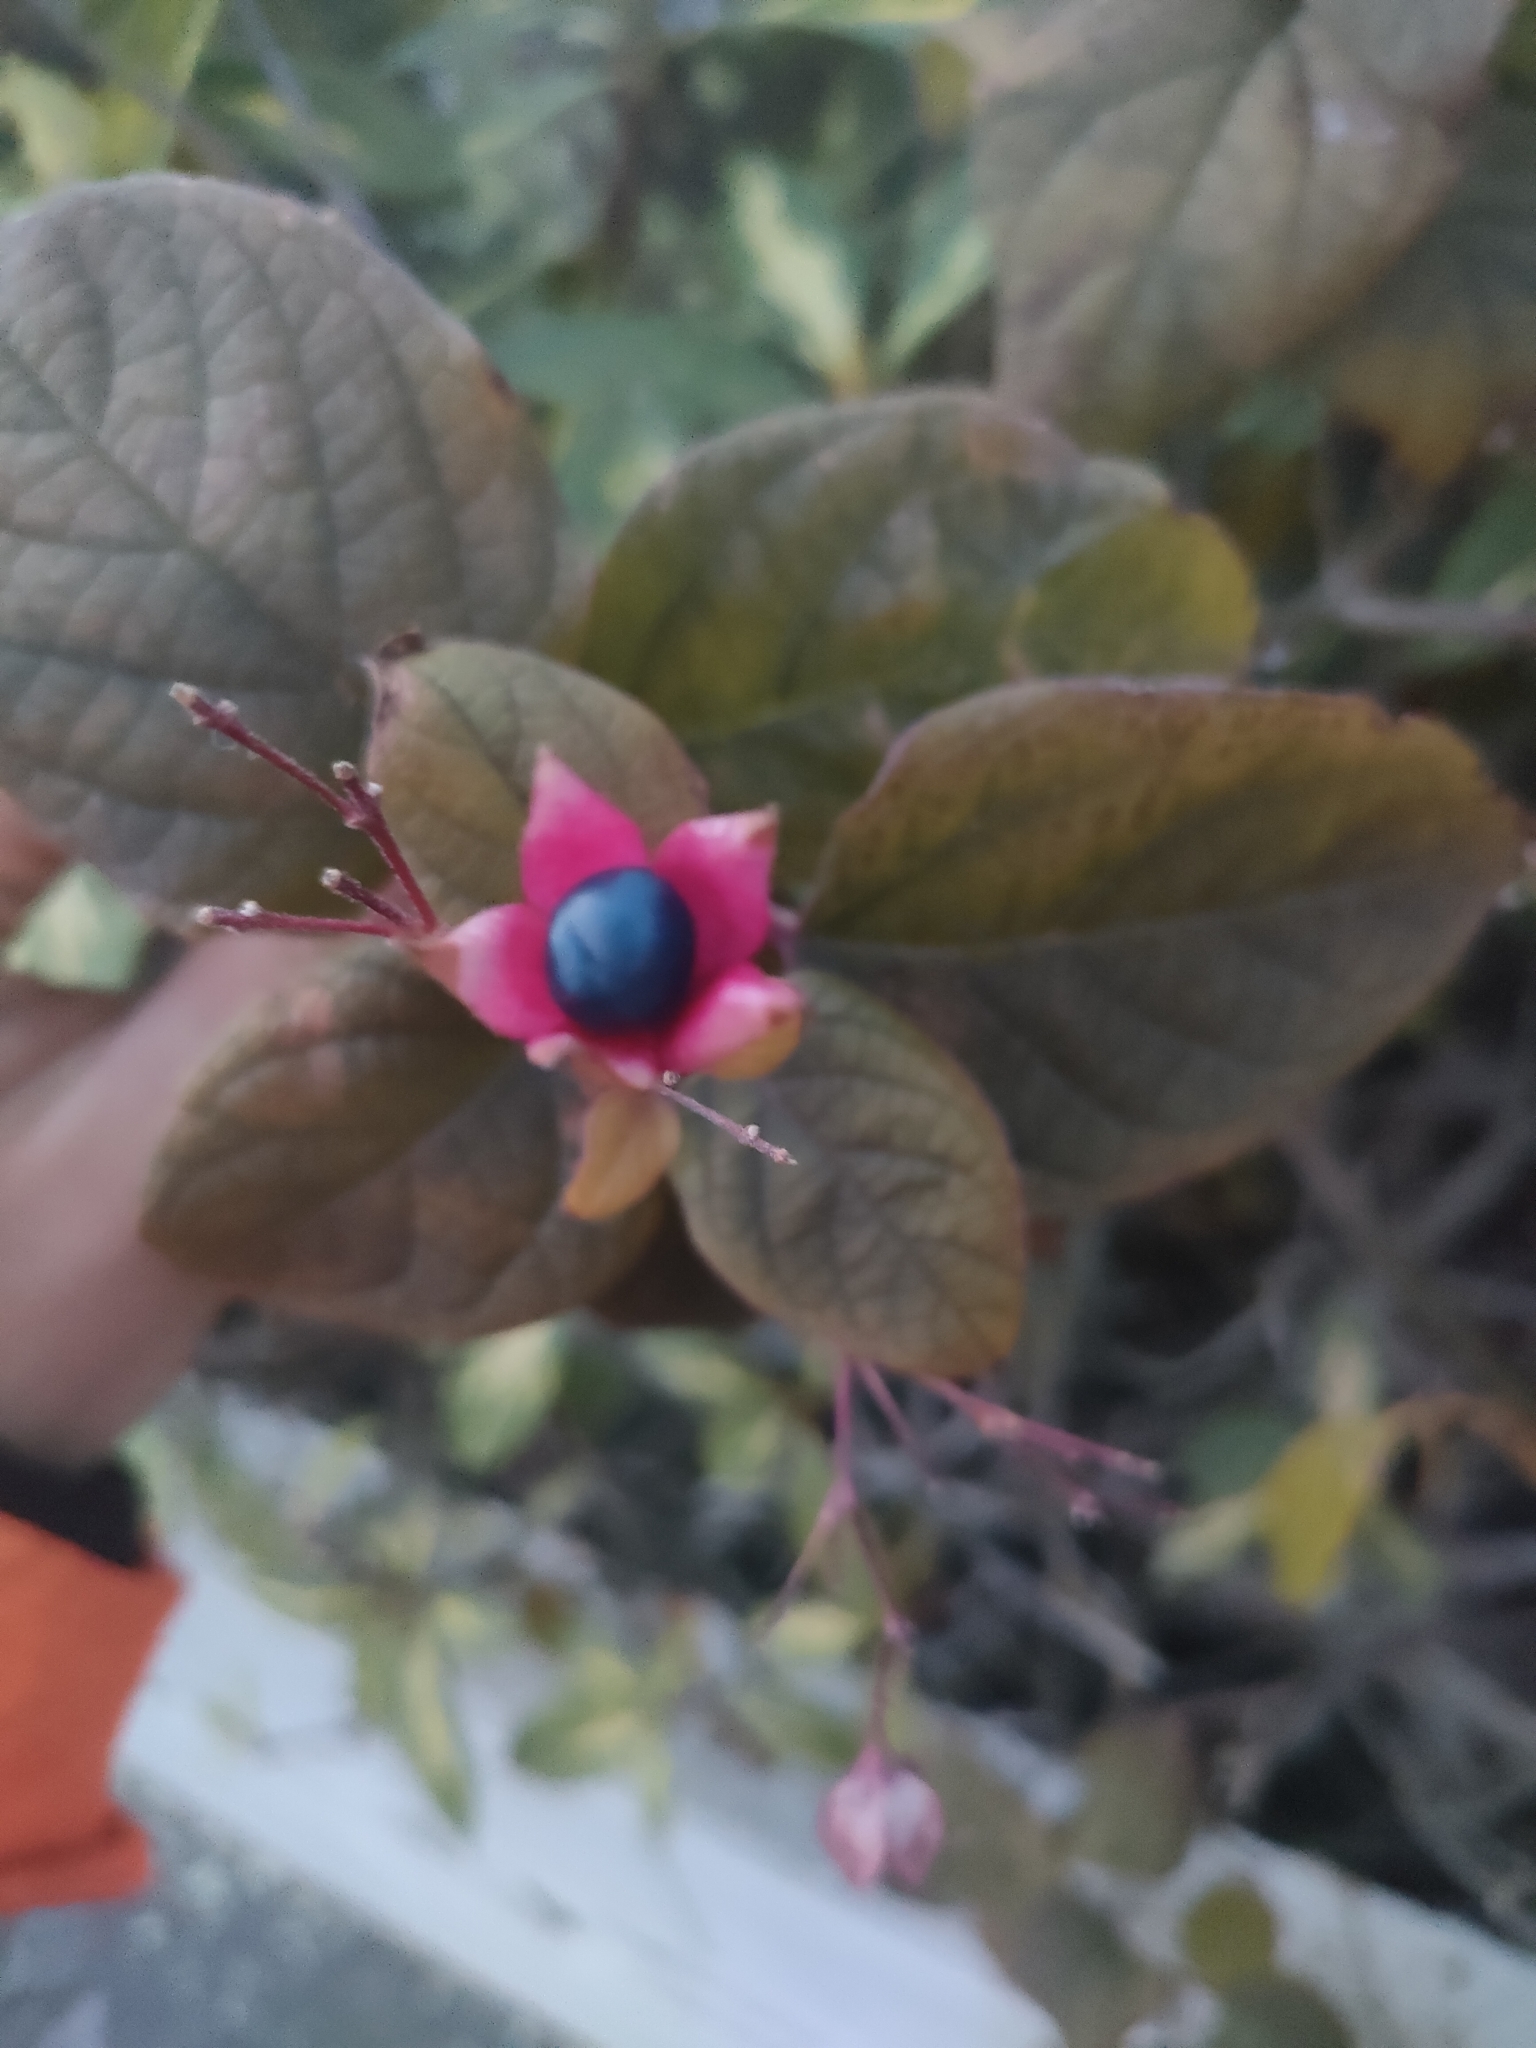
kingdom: Plantae
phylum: Tracheophyta
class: Magnoliopsida
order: Lamiales
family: Lamiaceae
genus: Clerodendrum
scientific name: Clerodendrum trichotomum
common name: Harlequin glorybower
